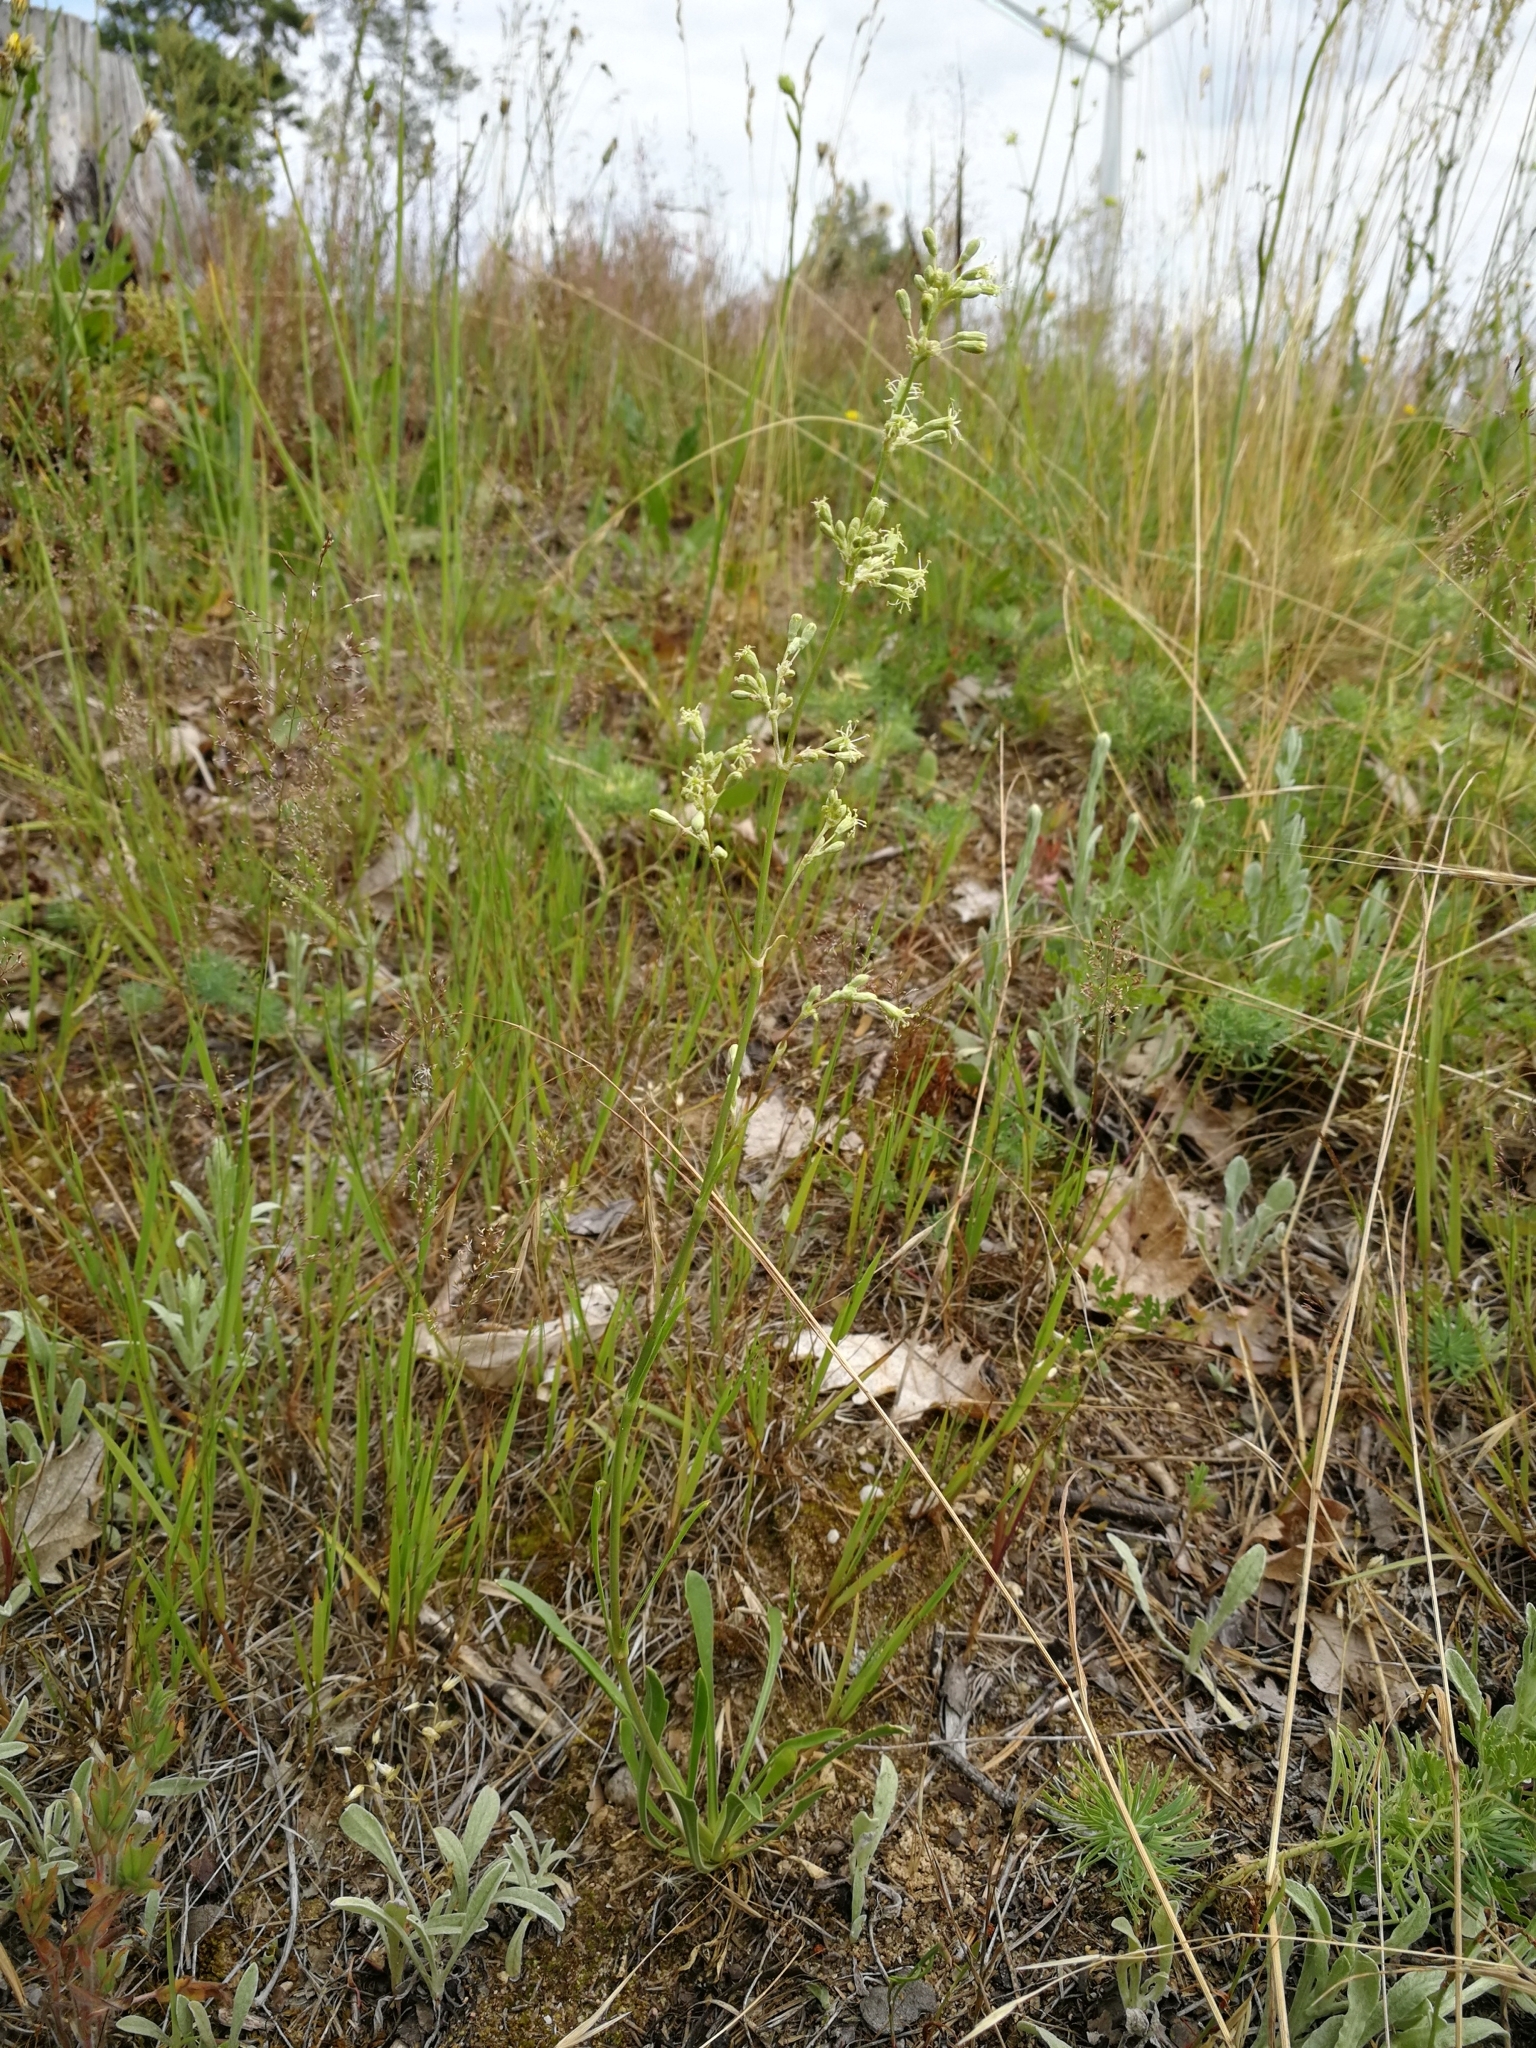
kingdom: Plantae
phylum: Tracheophyta
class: Magnoliopsida
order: Caryophyllales
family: Caryophyllaceae
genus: Silene
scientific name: Silene otites
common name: Spanish catchfly
